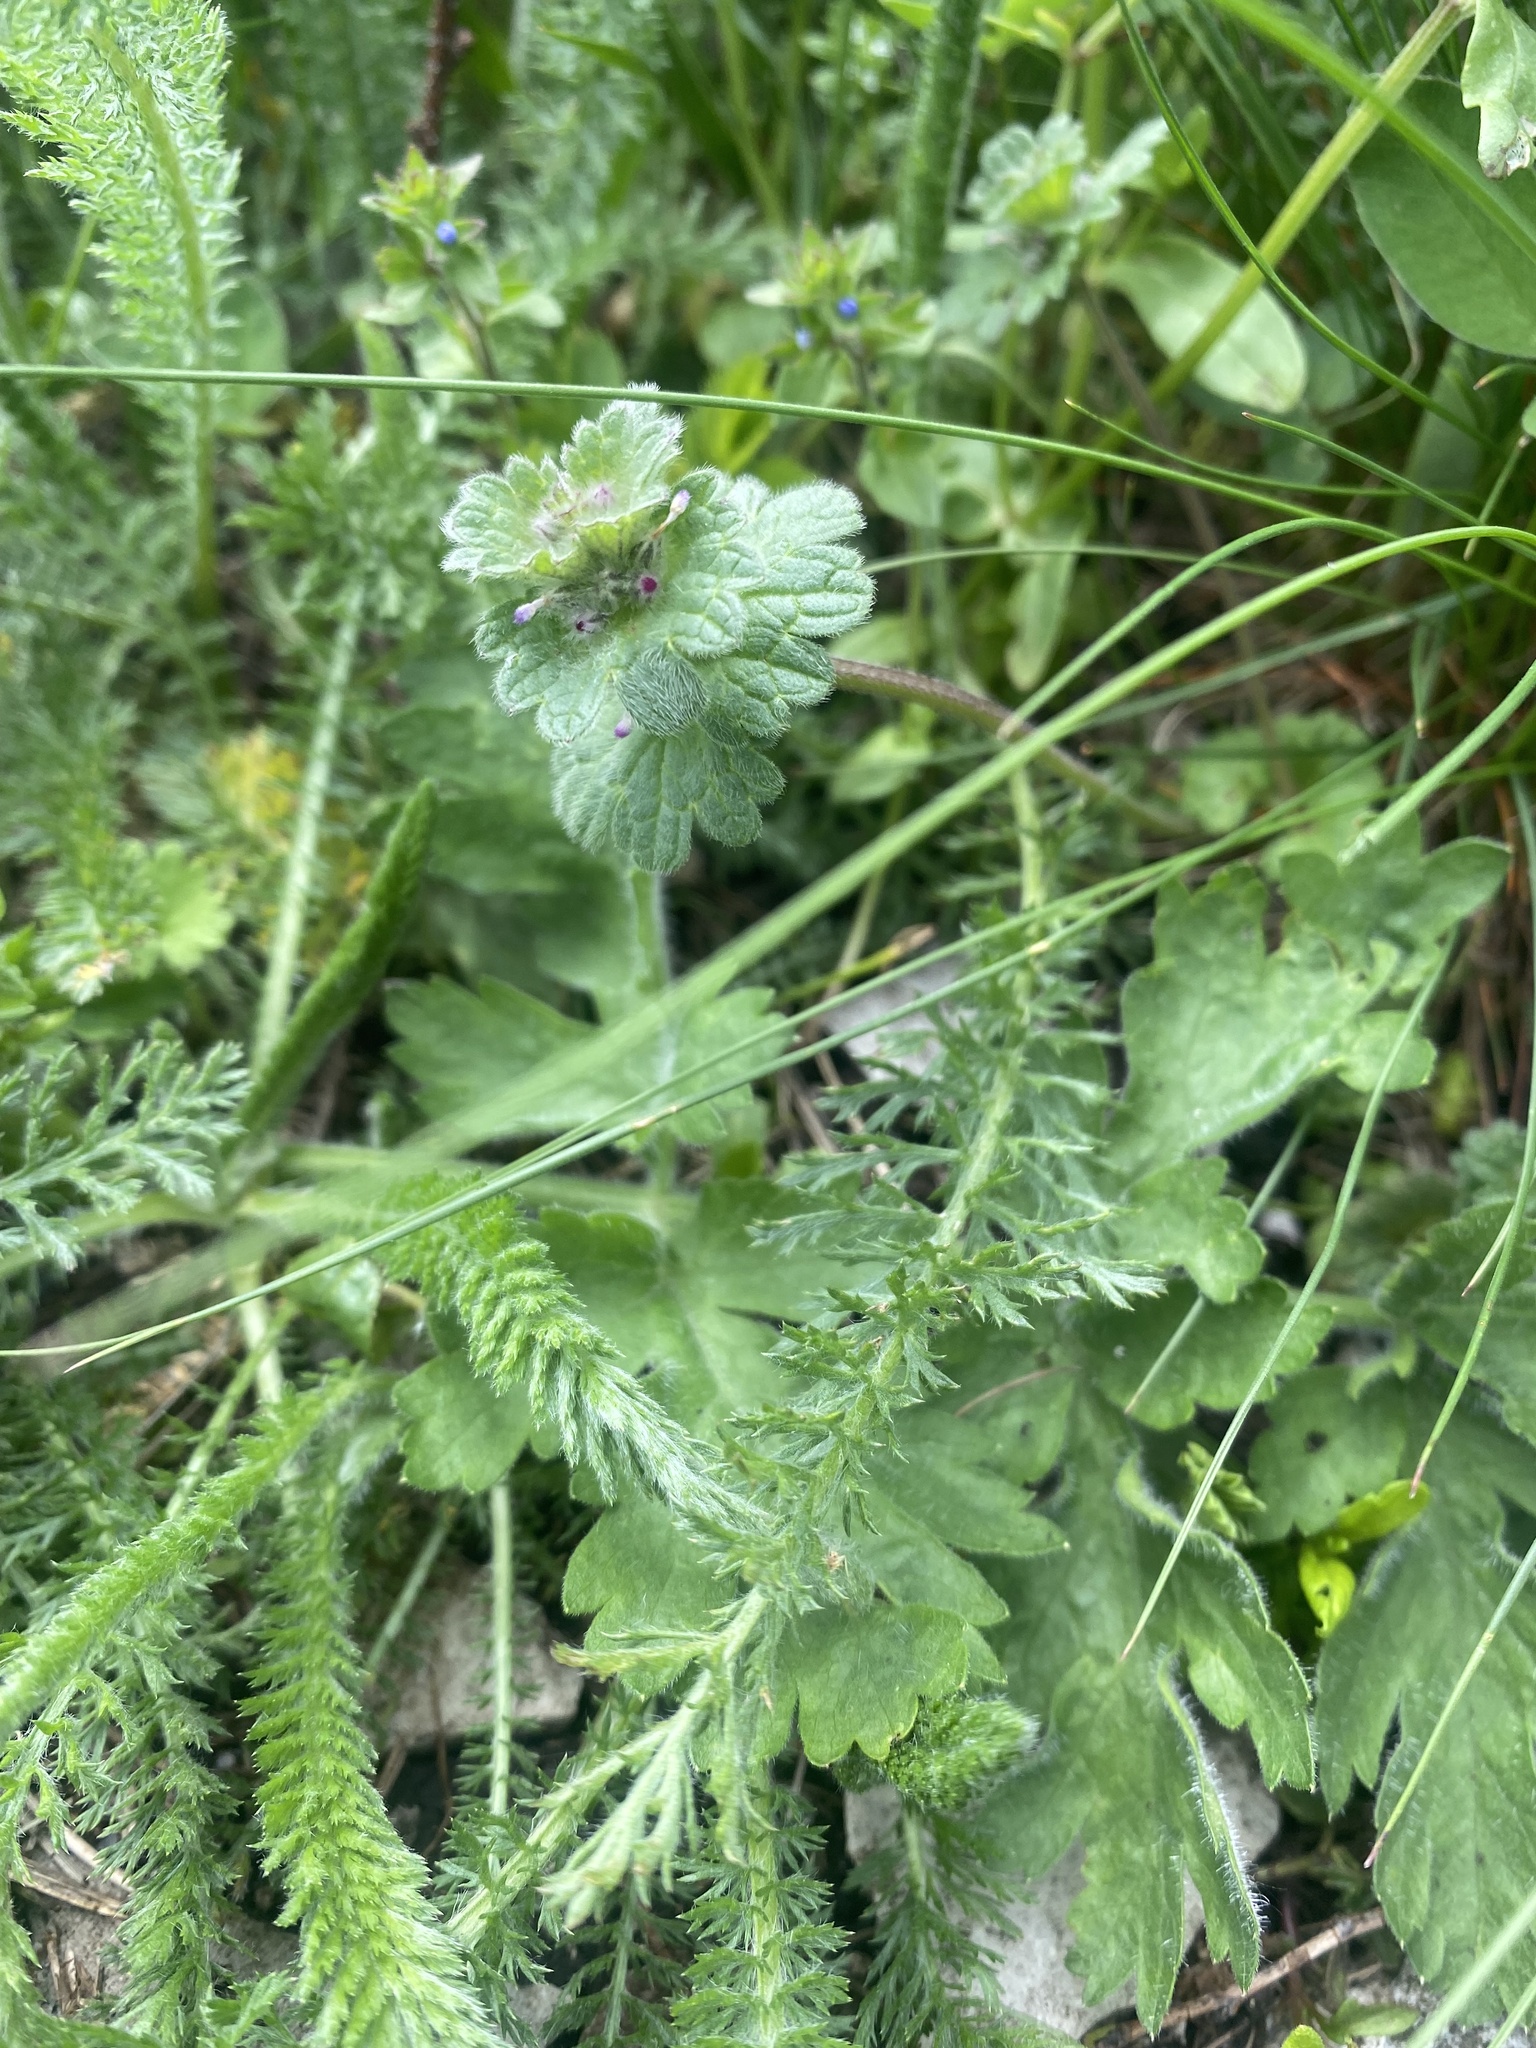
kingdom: Plantae
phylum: Tracheophyta
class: Magnoliopsida
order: Lamiales
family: Lamiaceae
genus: Lamium
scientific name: Lamium amplexicaule
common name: Henbit dead-nettle
